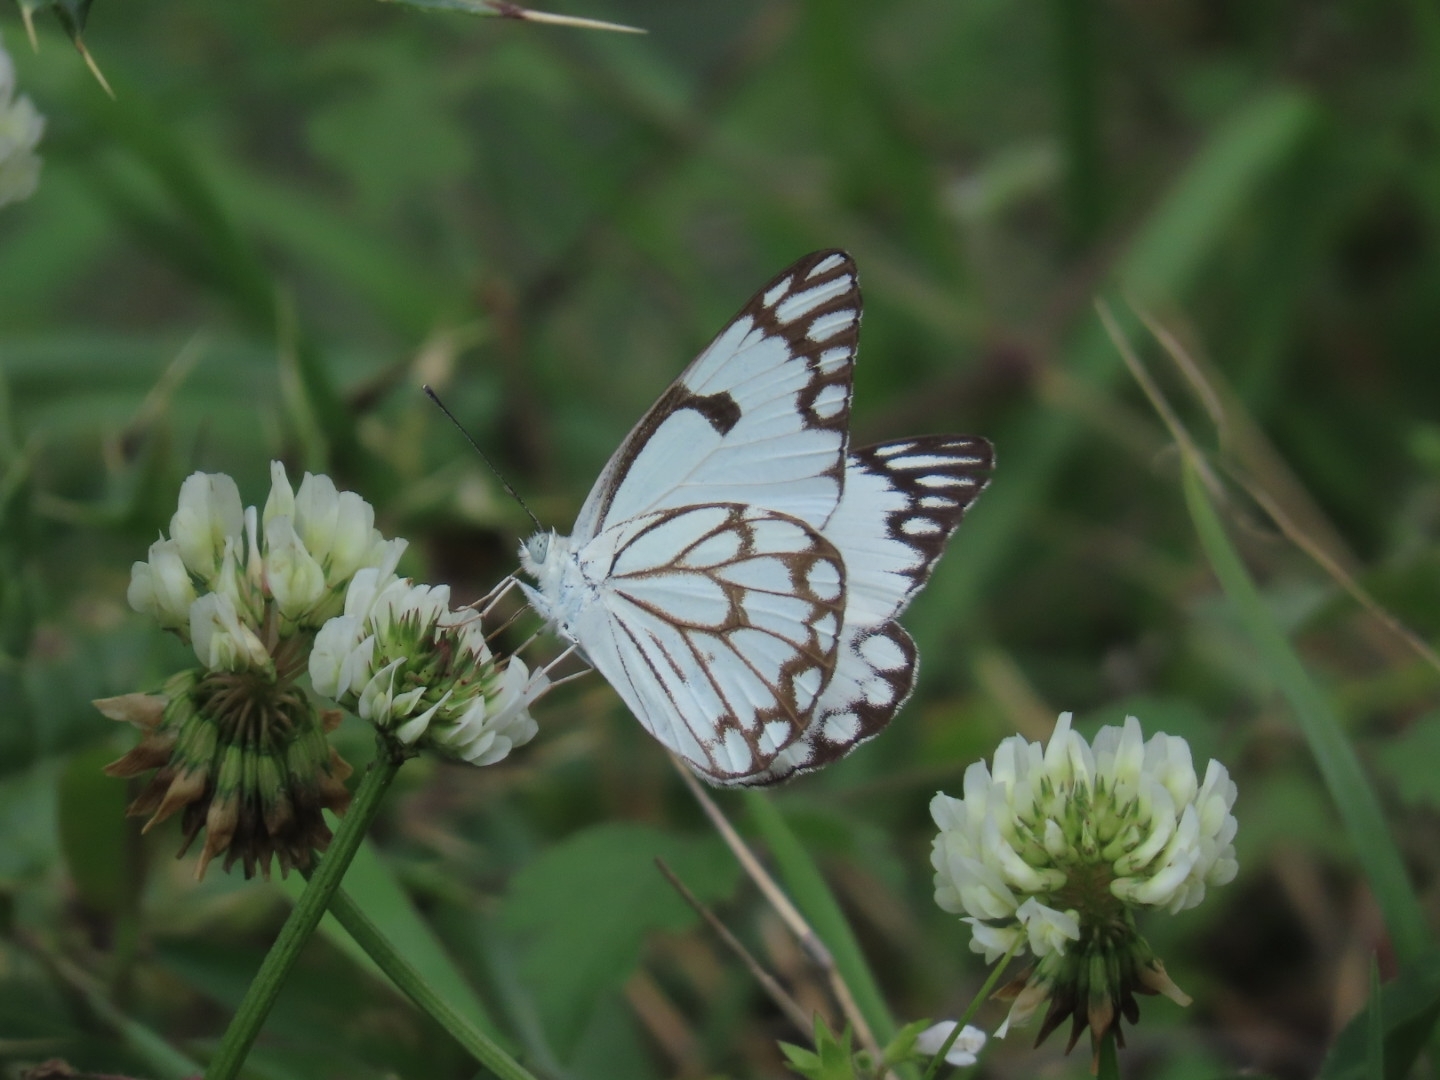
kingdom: Animalia
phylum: Arthropoda
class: Insecta
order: Lepidoptera
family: Pieridae
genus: Belenois
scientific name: Belenois aurota
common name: Brown-veined white
